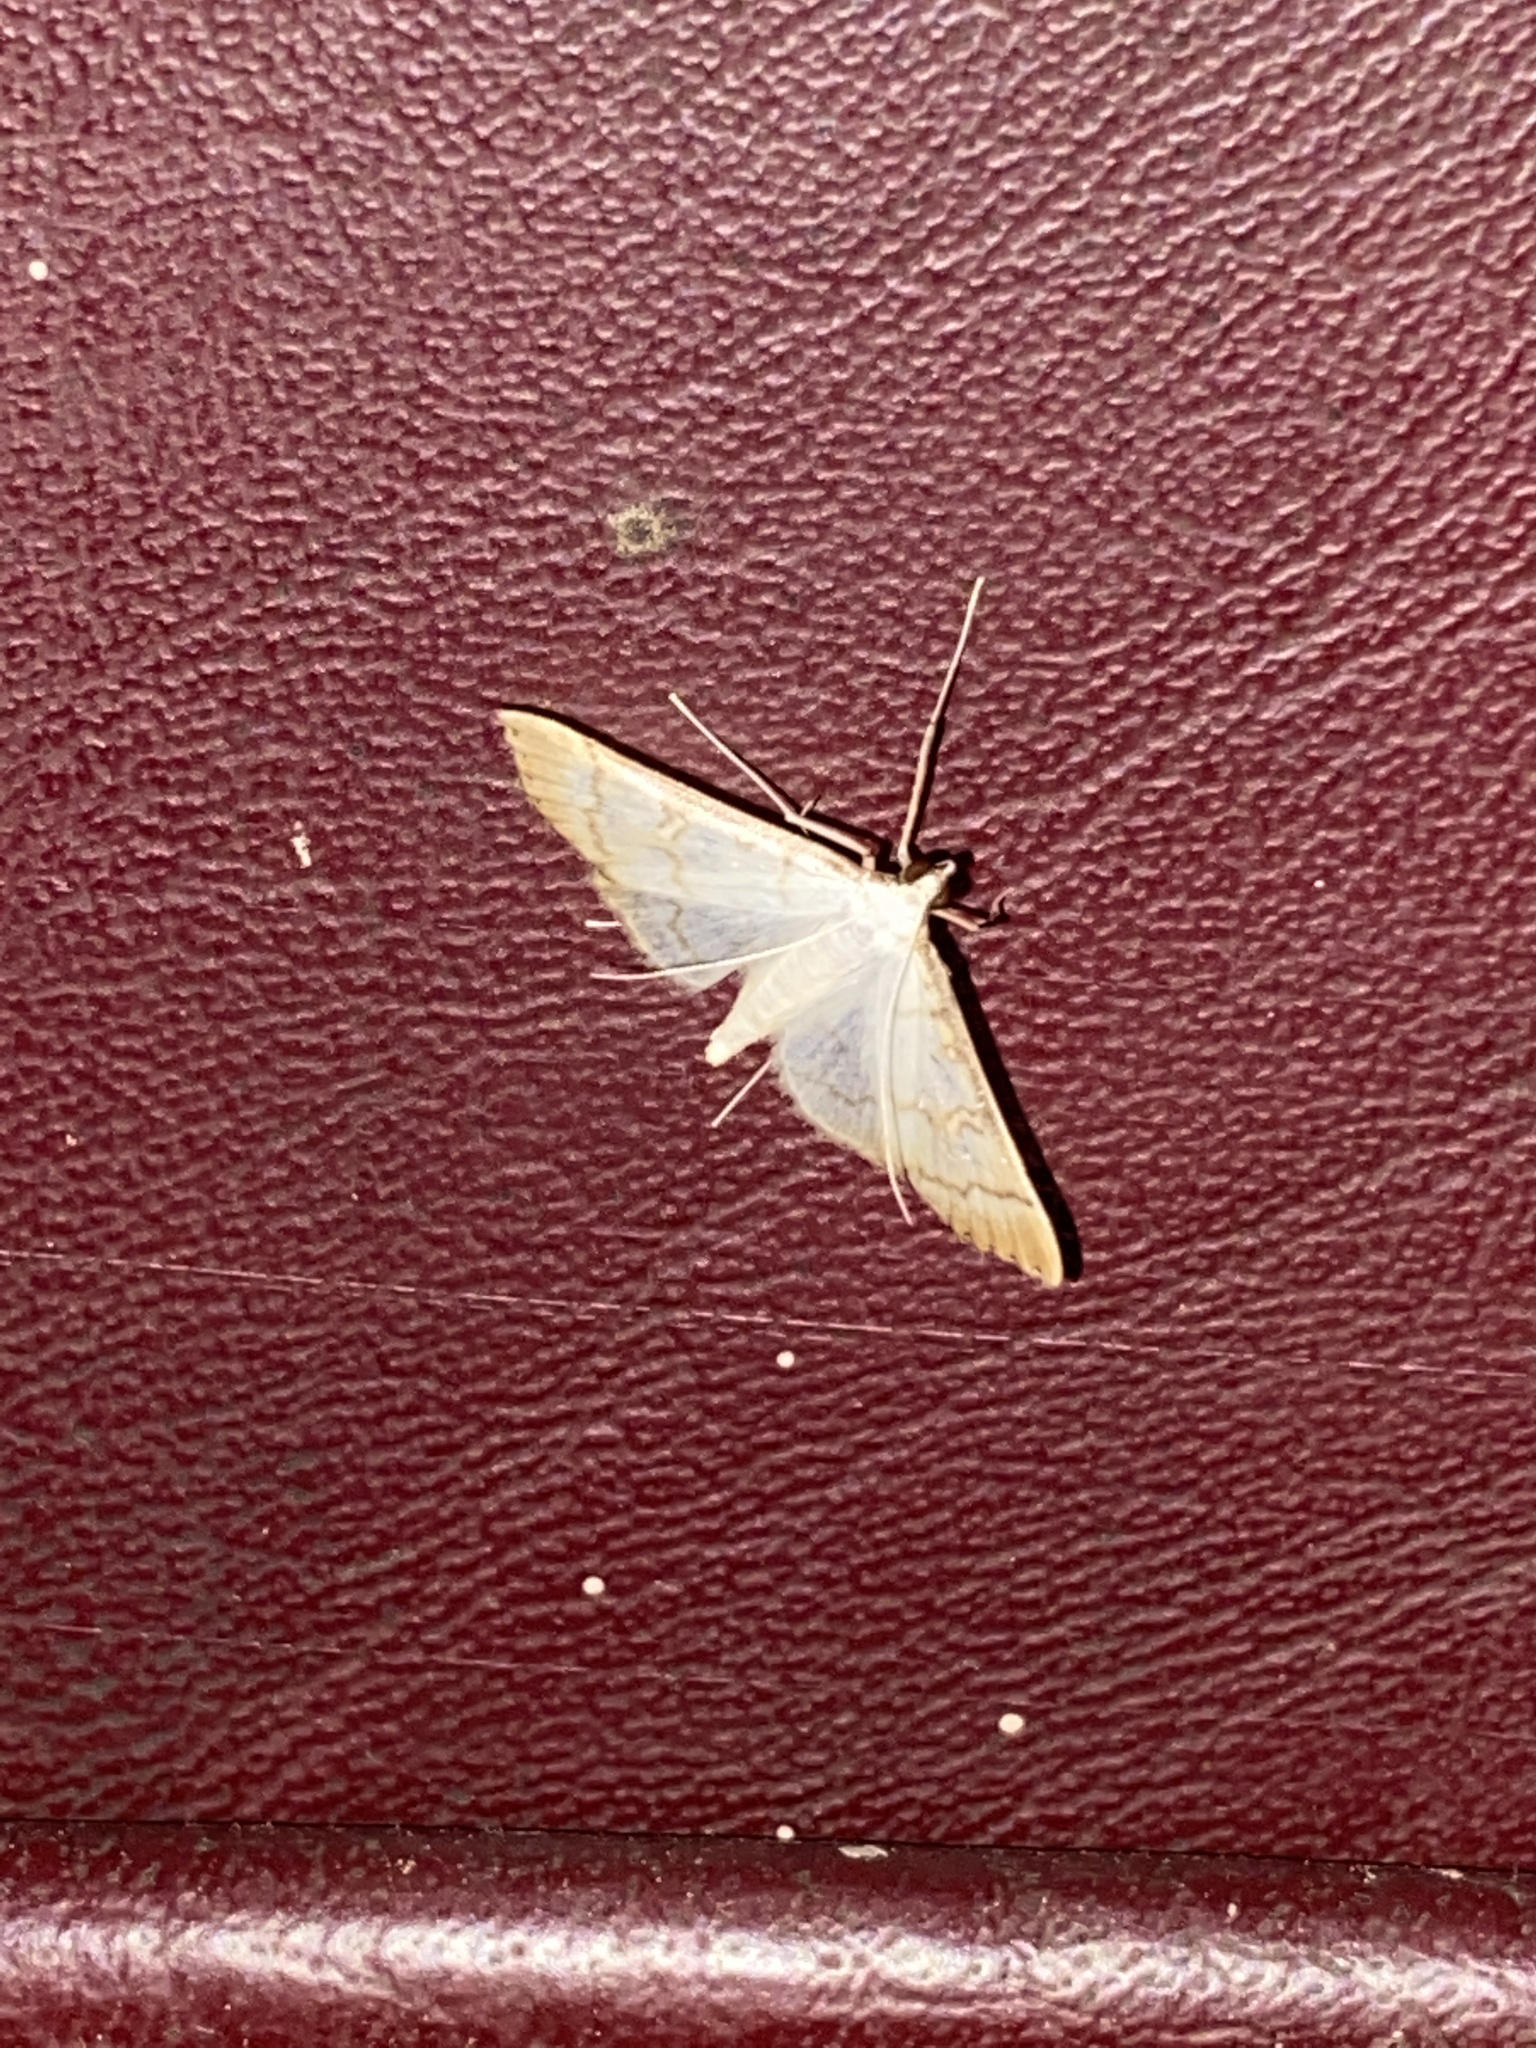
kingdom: Animalia
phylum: Arthropoda
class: Insecta
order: Lepidoptera
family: Crambidae
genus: Stenia
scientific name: Stenia colubralis
